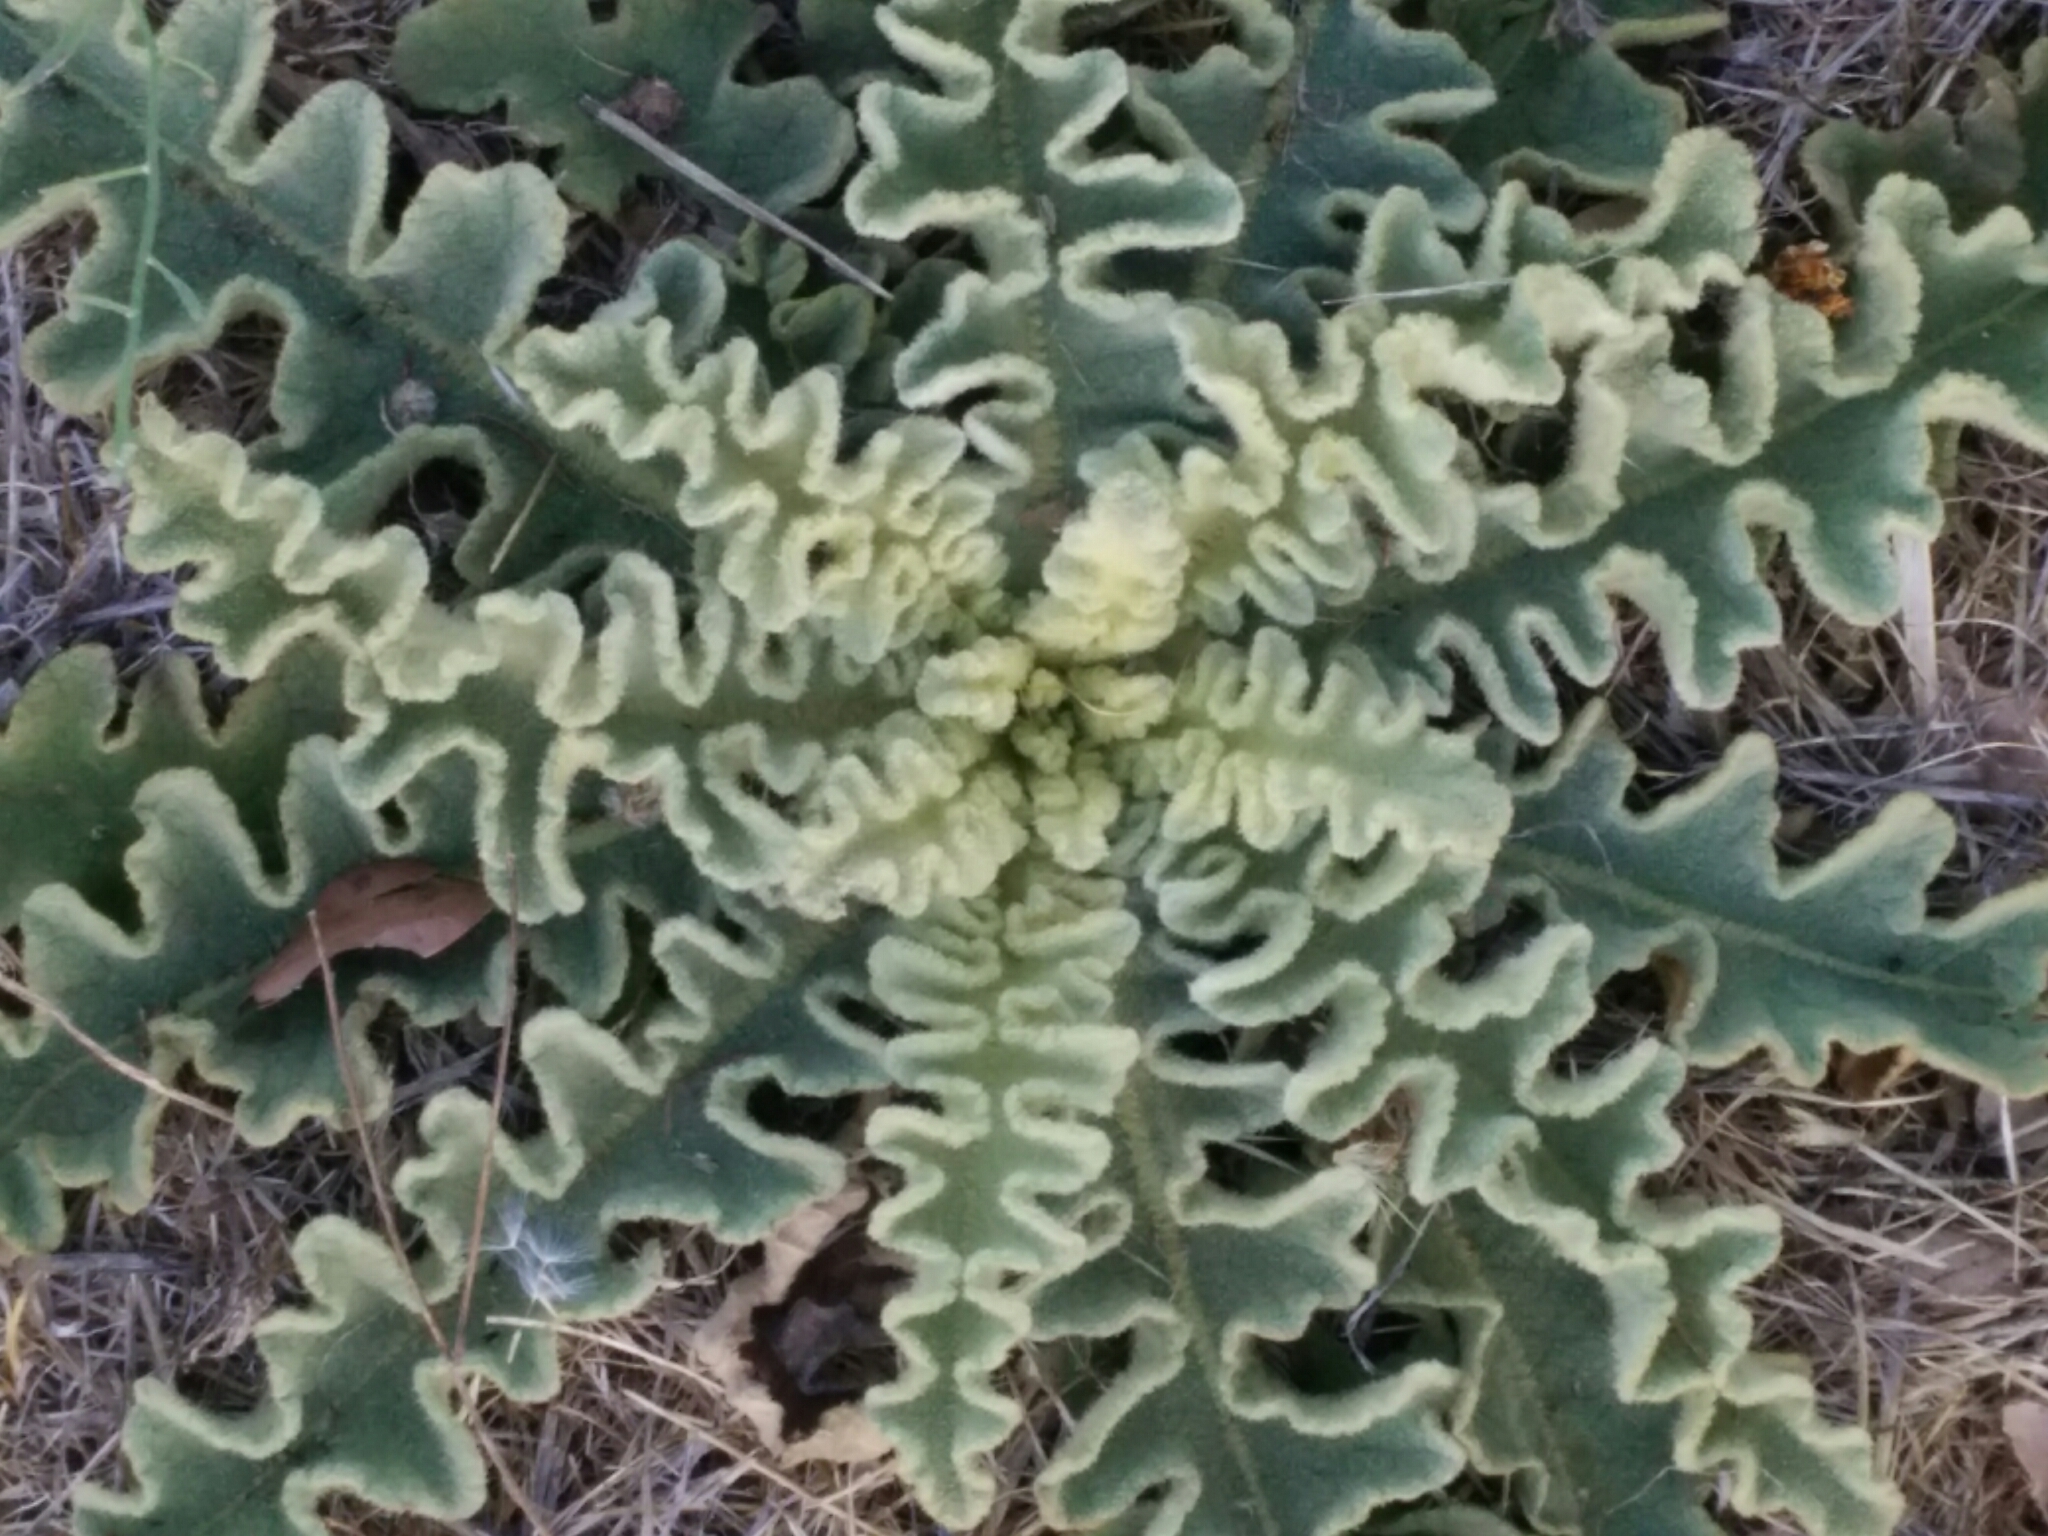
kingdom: Plantae
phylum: Tracheophyta
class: Magnoliopsida
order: Lamiales
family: Scrophulariaceae
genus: Verbascum
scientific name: Verbascum sinuatum
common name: Wavyleaf mullein
